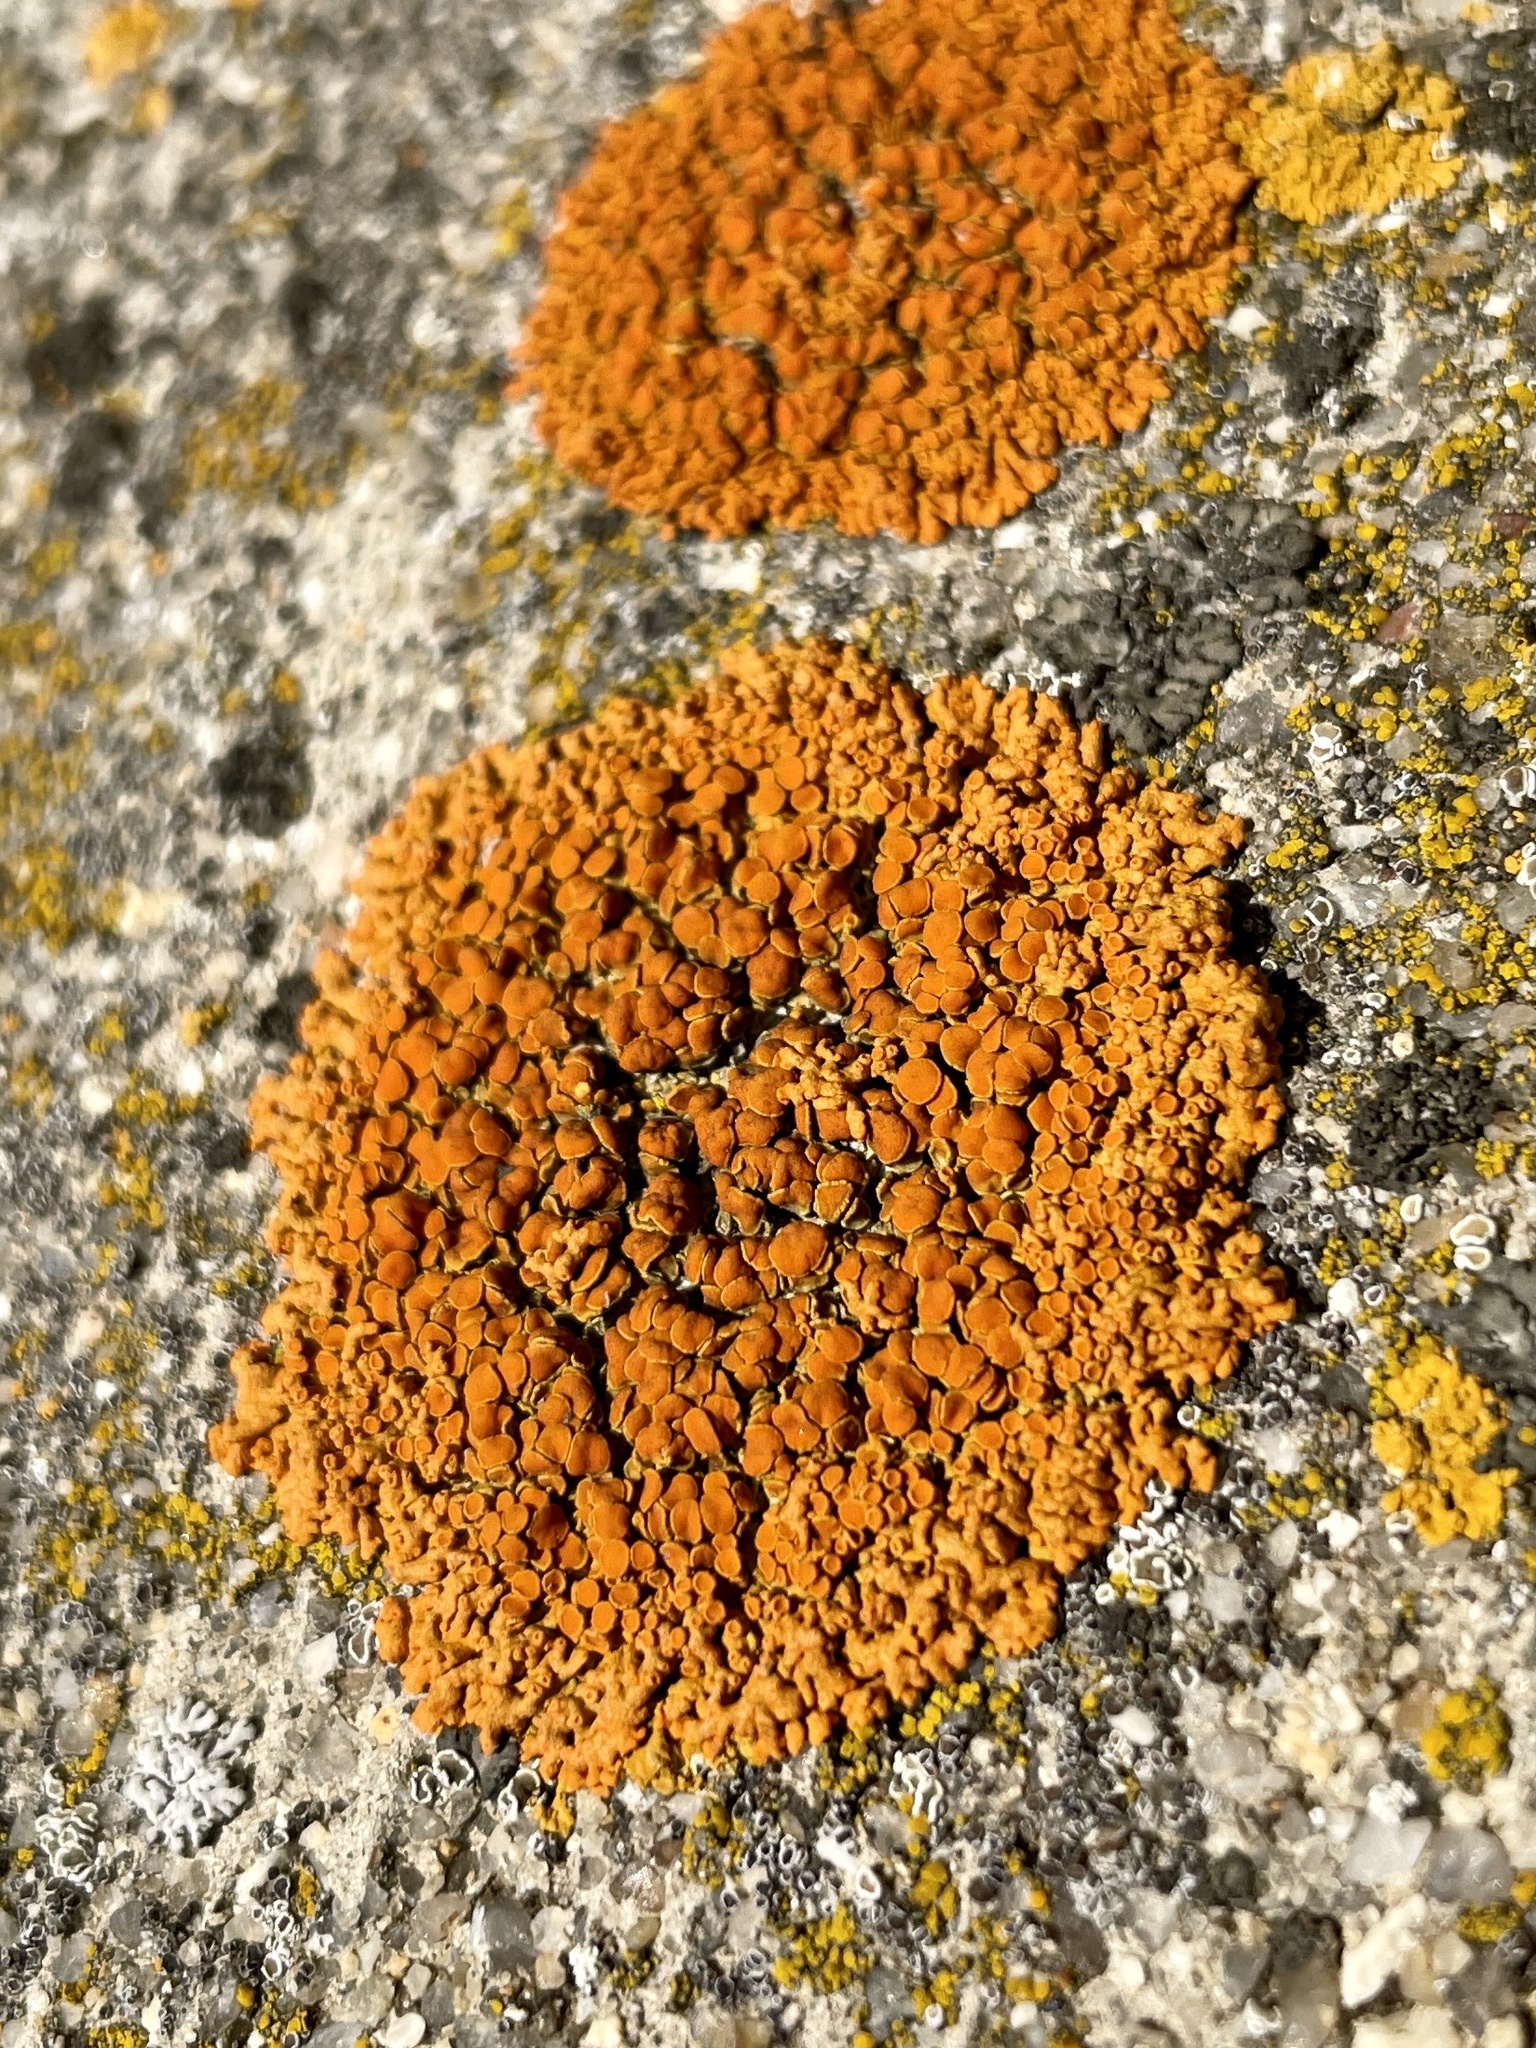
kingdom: Fungi
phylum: Ascomycota
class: Lecanoromycetes
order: Teloschistales
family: Teloschistaceae
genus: Xanthoria
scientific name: Xanthoria elegans
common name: Elegant sunburst lichen
